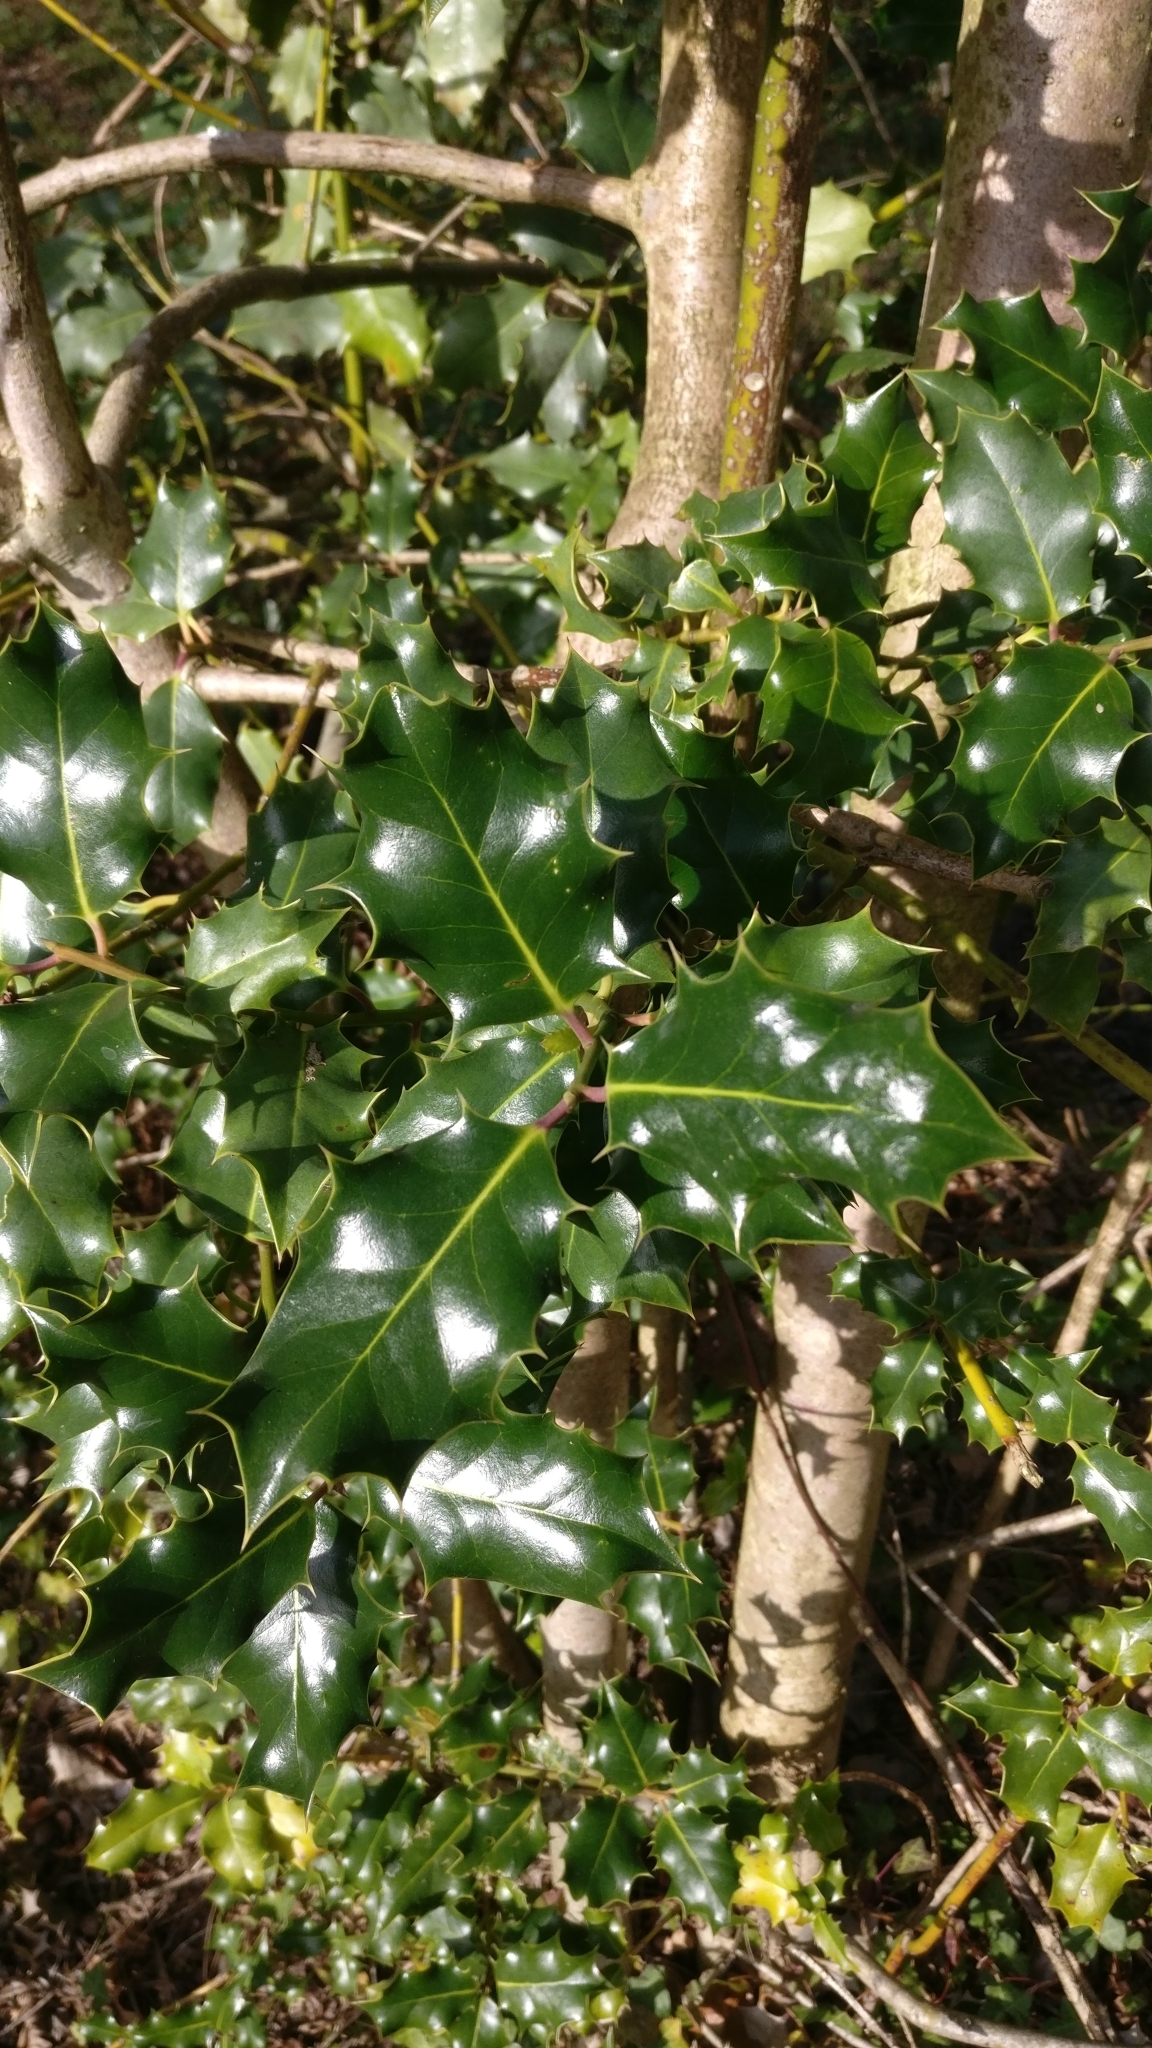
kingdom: Plantae
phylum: Tracheophyta
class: Magnoliopsida
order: Aquifoliales
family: Aquifoliaceae
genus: Ilex
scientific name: Ilex aquifolium
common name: English holly
